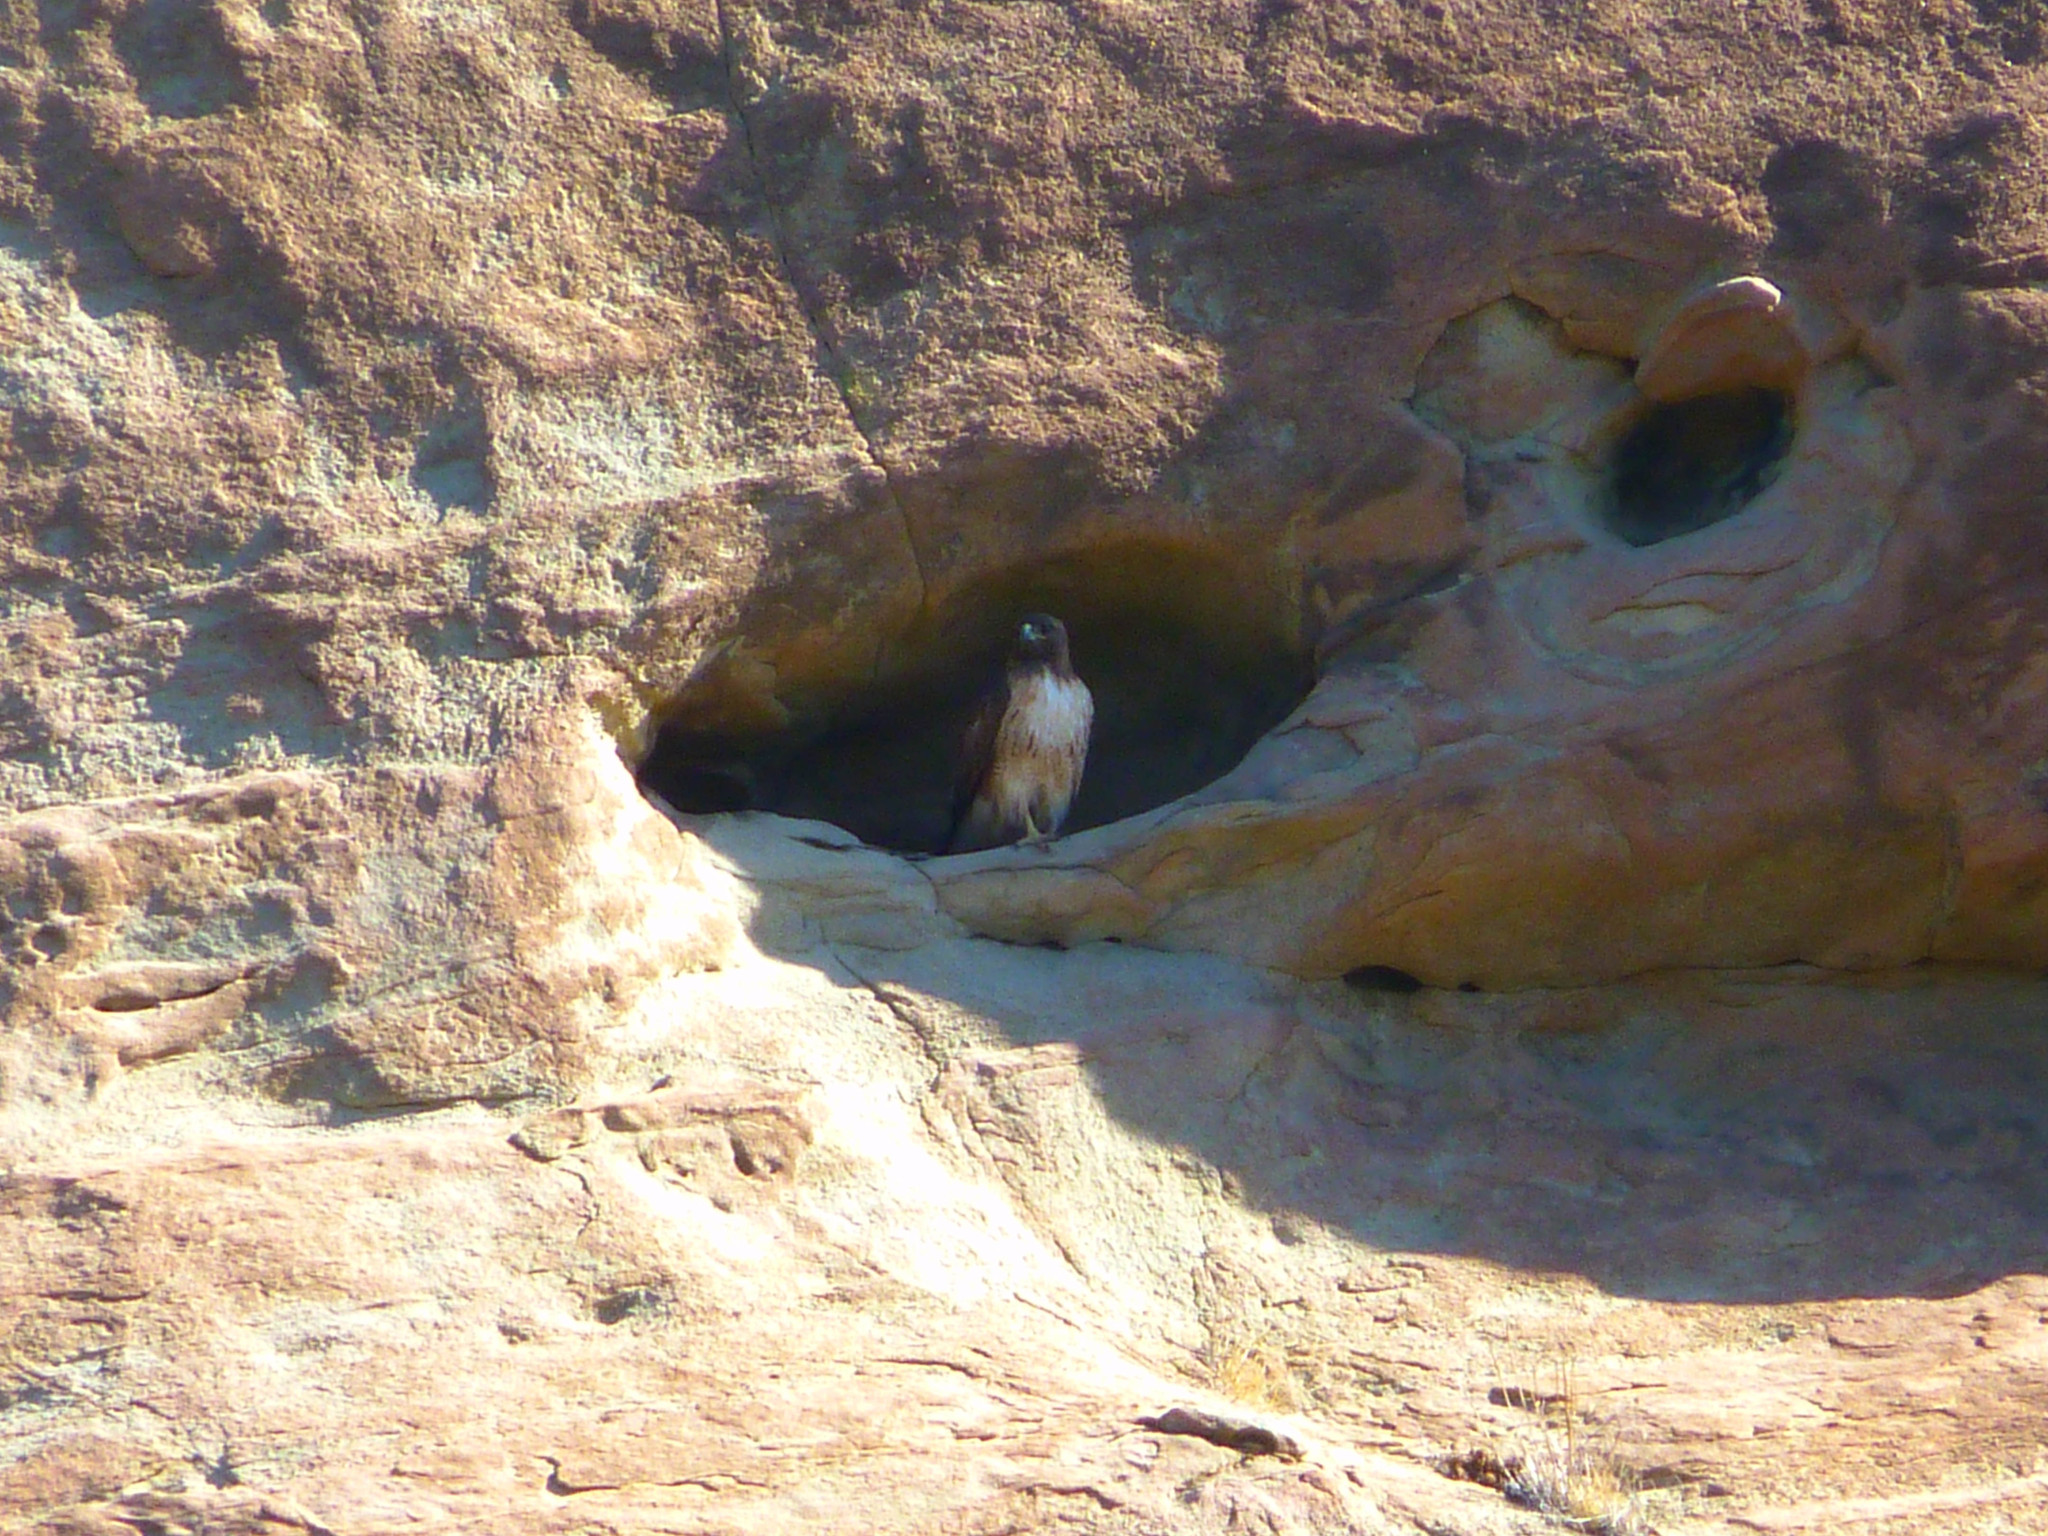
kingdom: Animalia
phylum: Chordata
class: Aves
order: Accipitriformes
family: Accipitridae
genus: Buteo
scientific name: Buteo jamaicensis
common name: Red-tailed hawk
